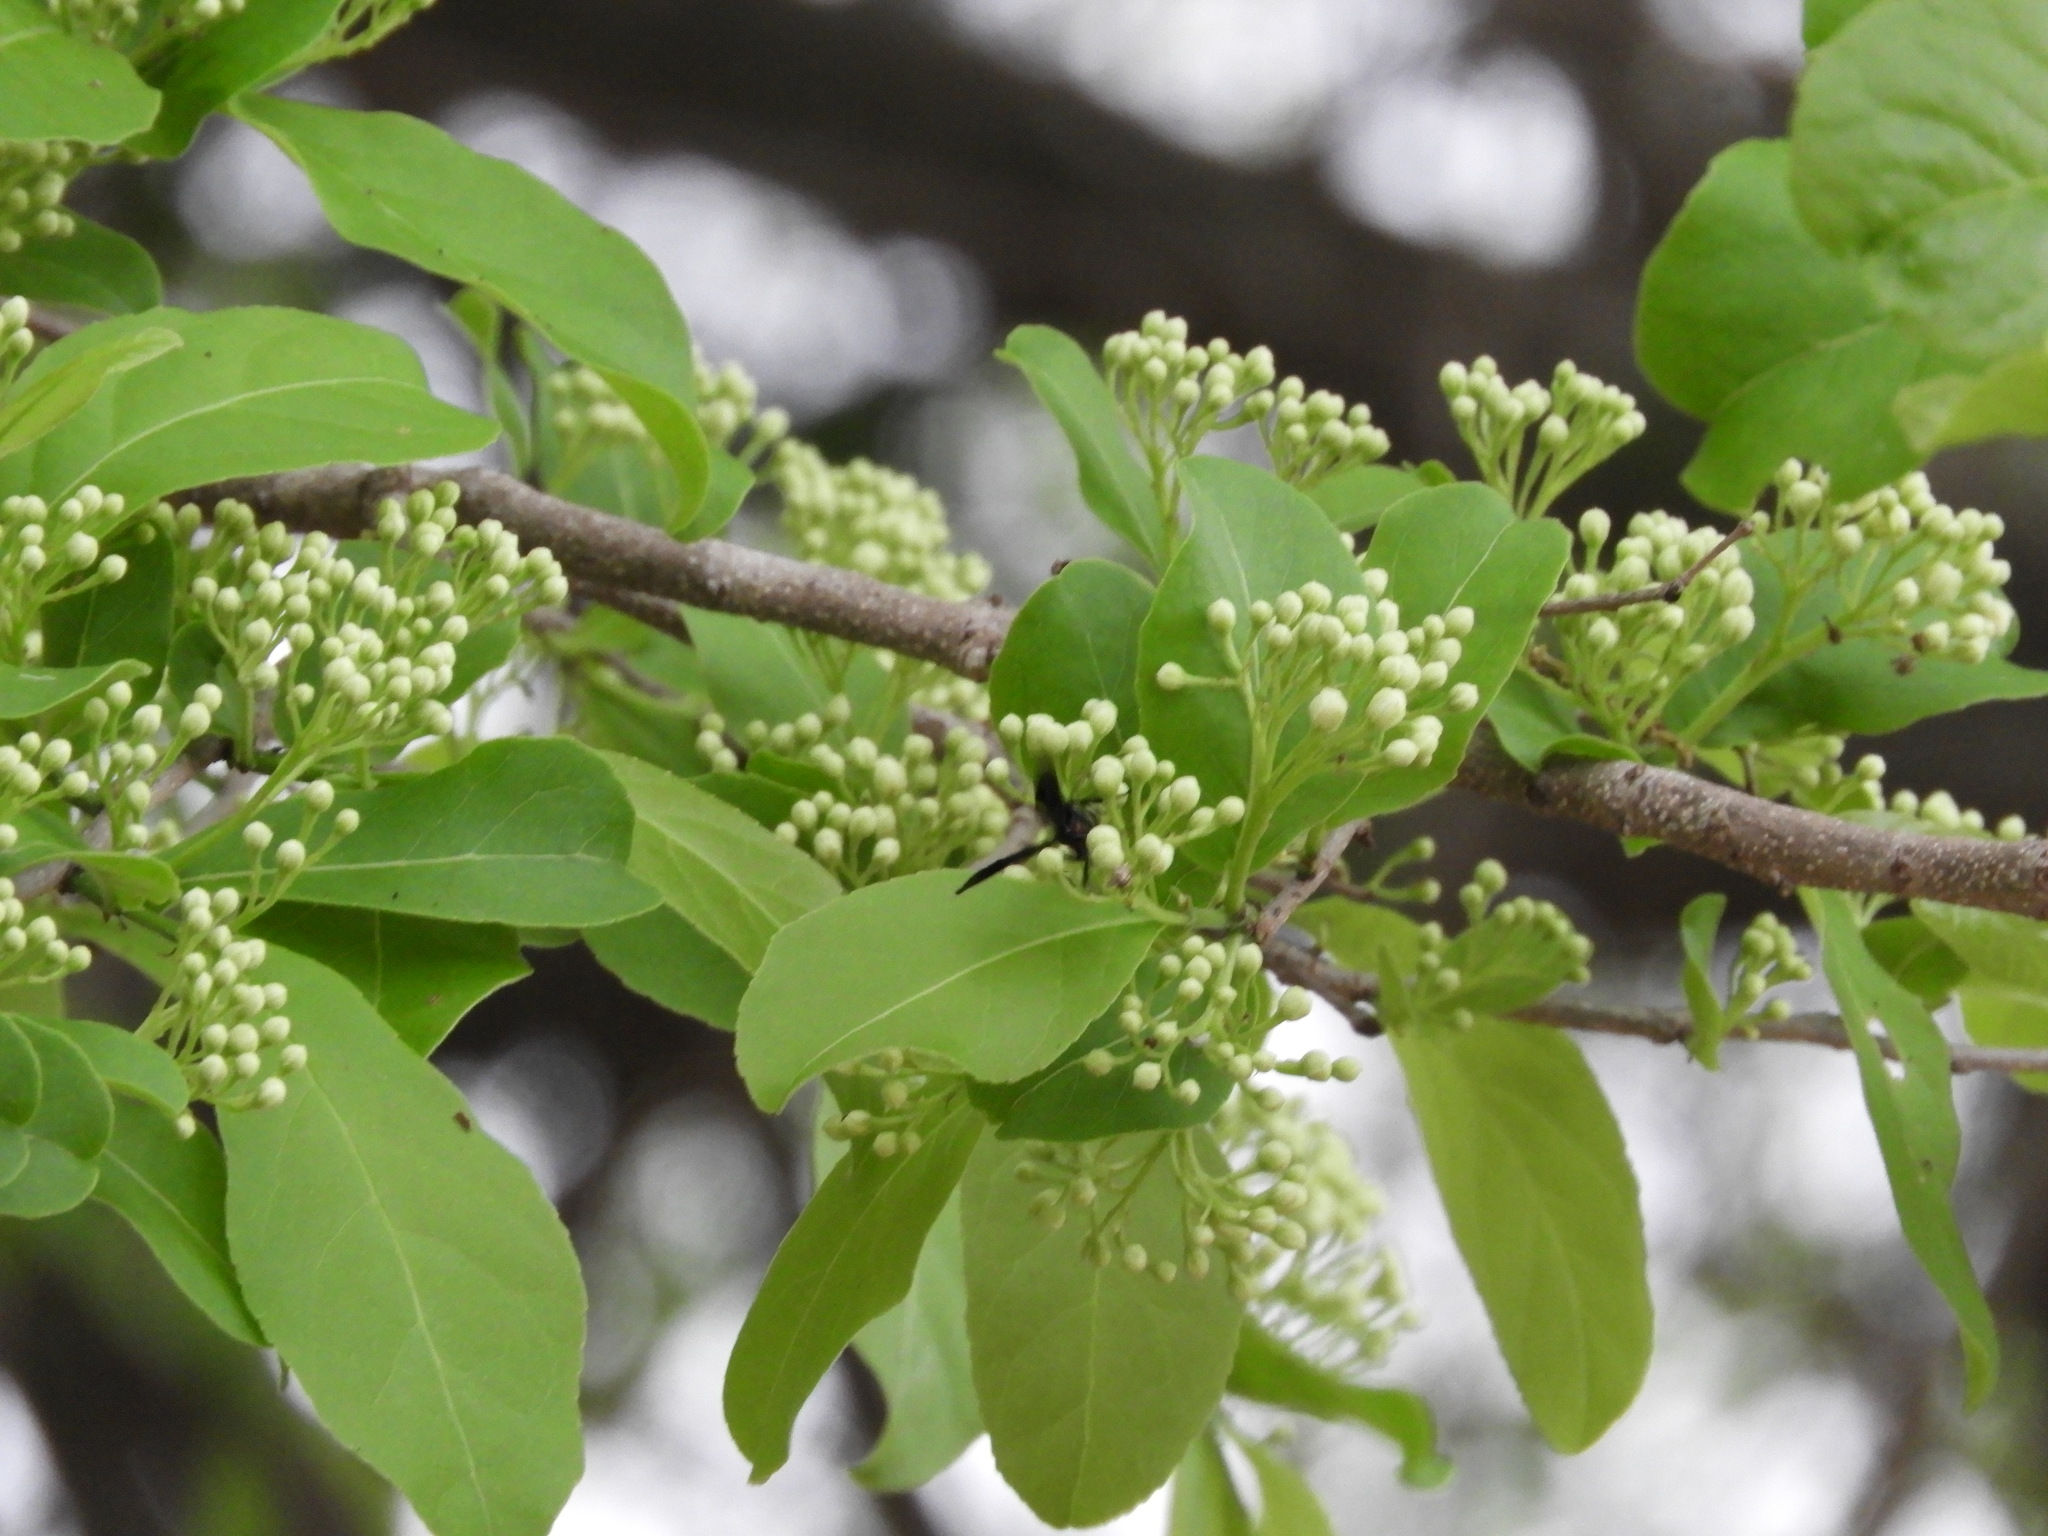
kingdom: Plantae
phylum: Tracheophyta
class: Magnoliopsida
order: Caryophyllales
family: Nyctaginaceae
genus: Neea
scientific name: Neea psychotrioides
